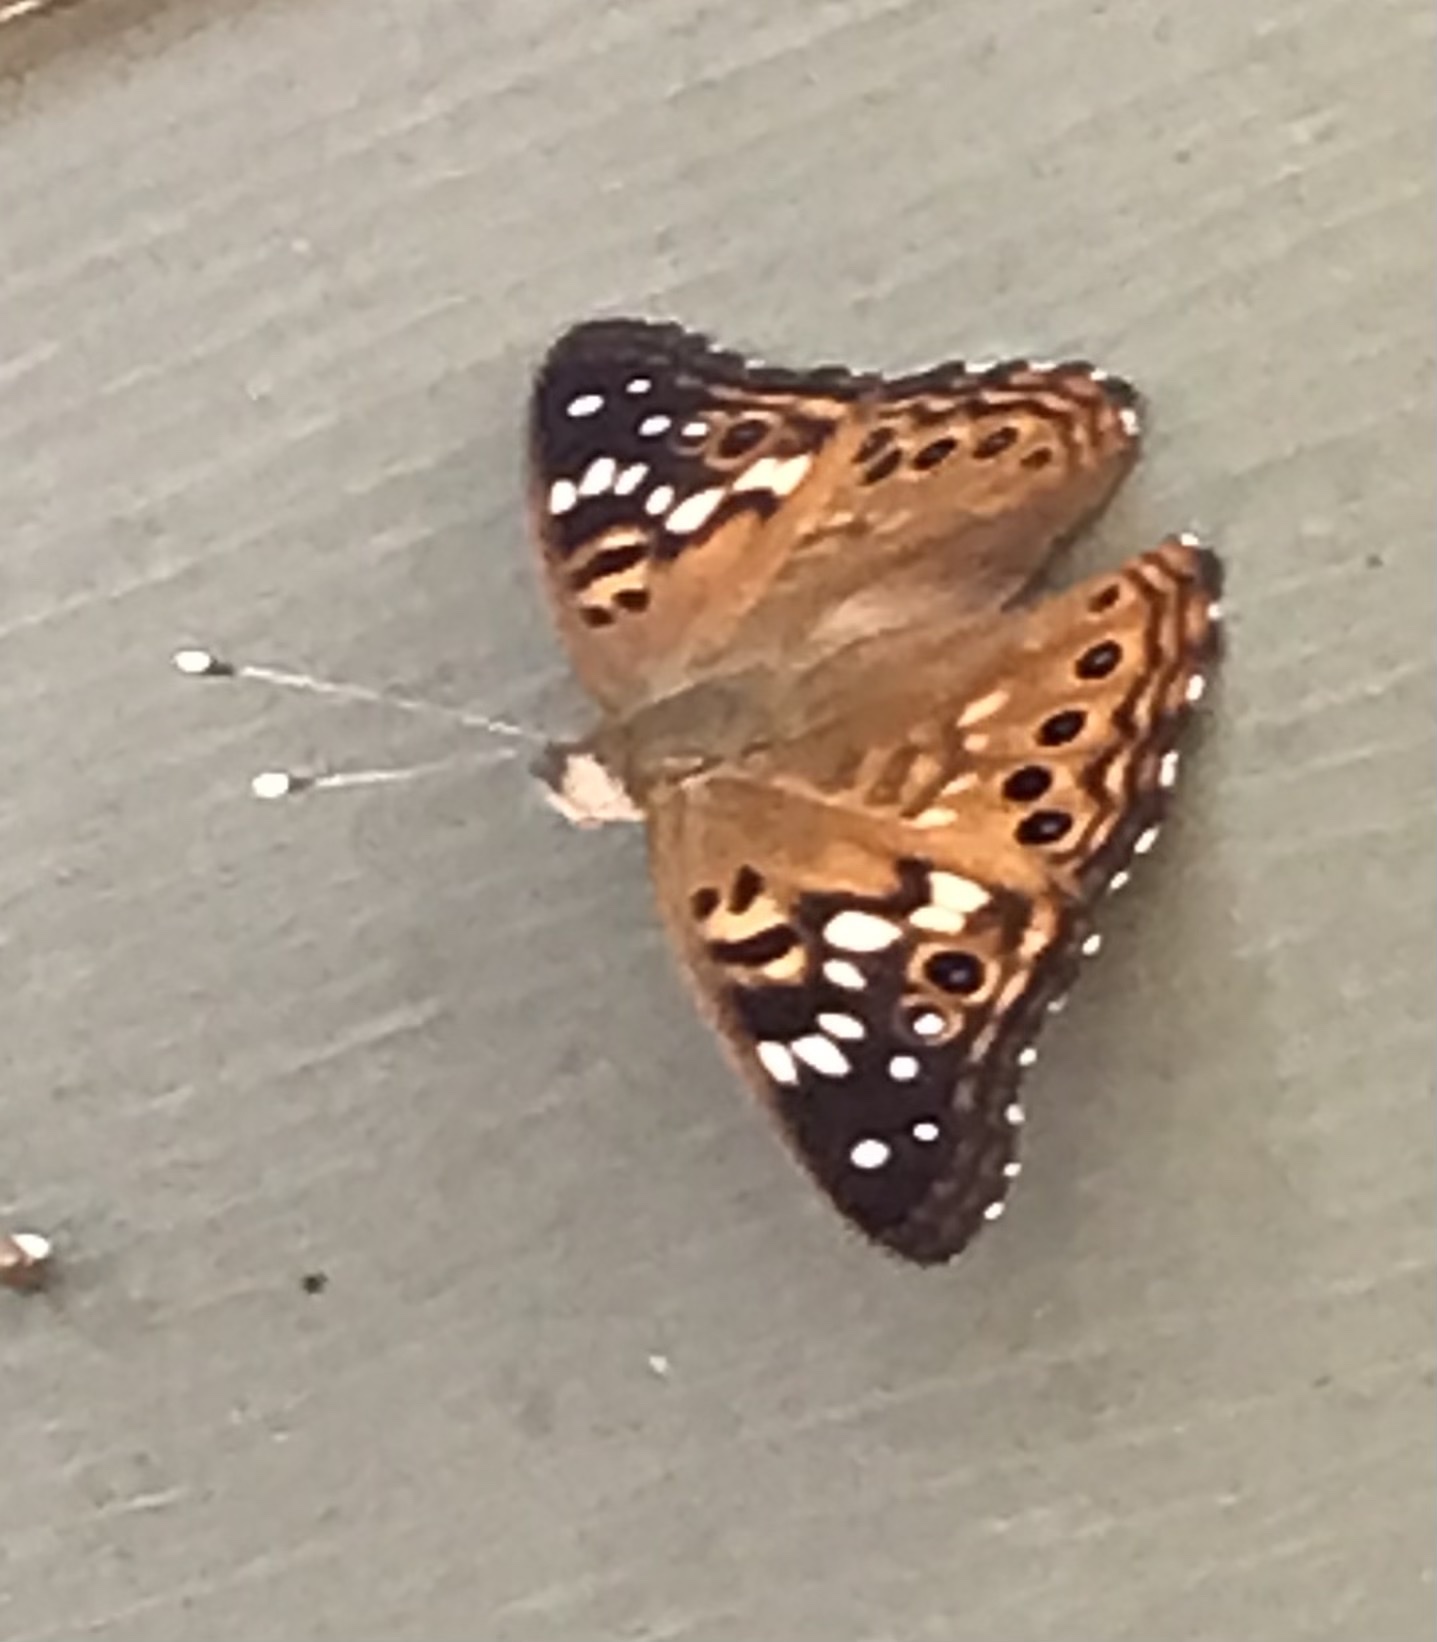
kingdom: Animalia
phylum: Arthropoda
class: Insecta
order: Lepidoptera
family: Nymphalidae
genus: Asterocampa
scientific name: Asterocampa celtis
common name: Hackberry emperor
